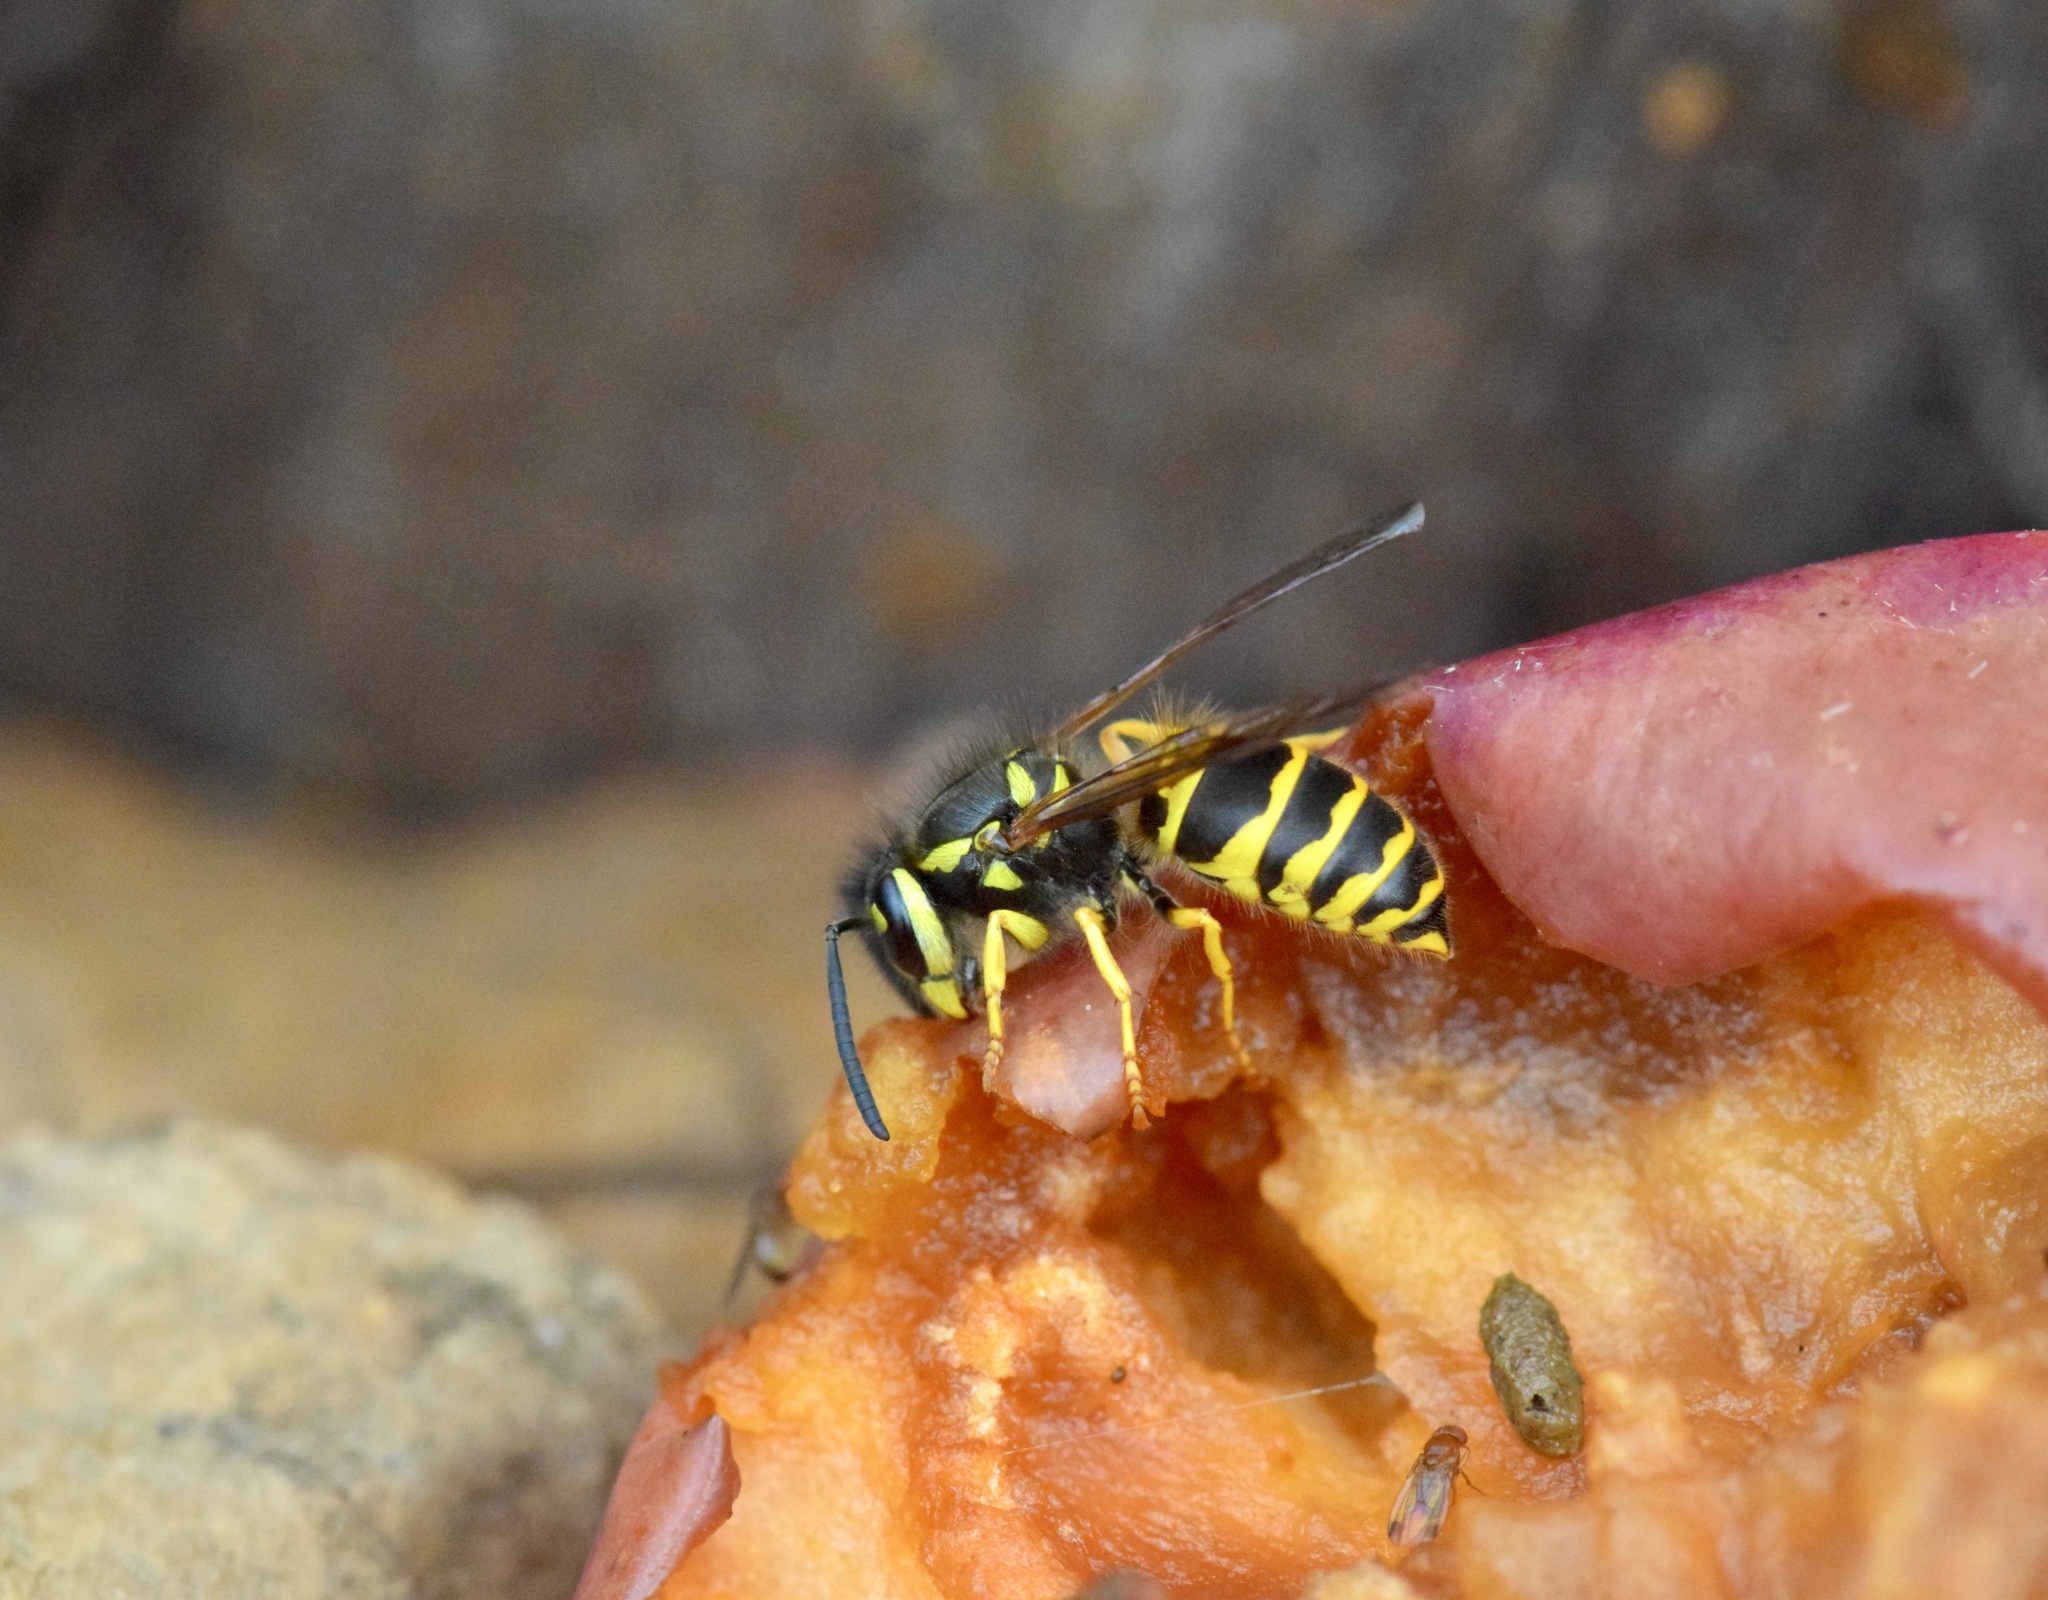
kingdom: Animalia
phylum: Arthropoda
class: Insecta
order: Hymenoptera
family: Vespidae
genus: Vespula
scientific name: Vespula maculifrons
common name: Eastern yellowjacket
